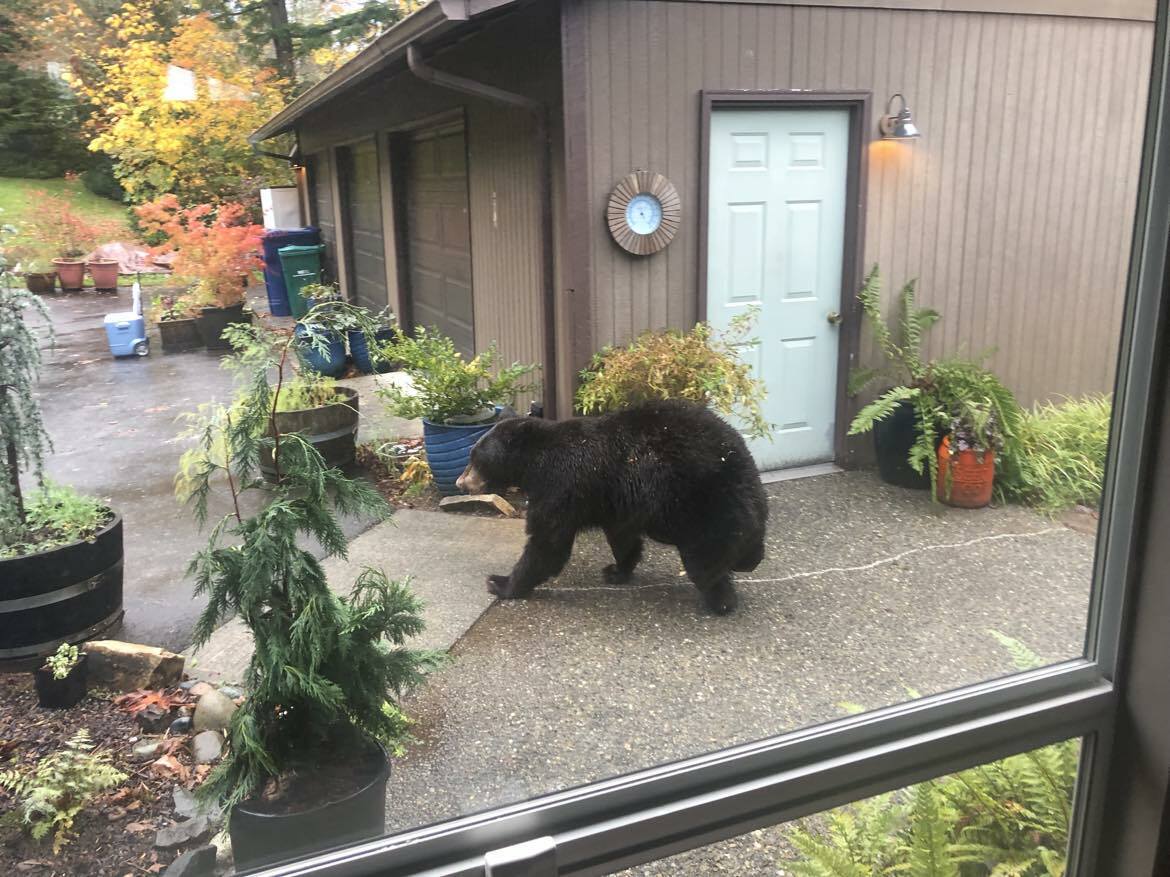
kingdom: Animalia
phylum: Chordata
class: Mammalia
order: Carnivora
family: Ursidae
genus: Ursus
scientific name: Ursus americanus
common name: American black bear
